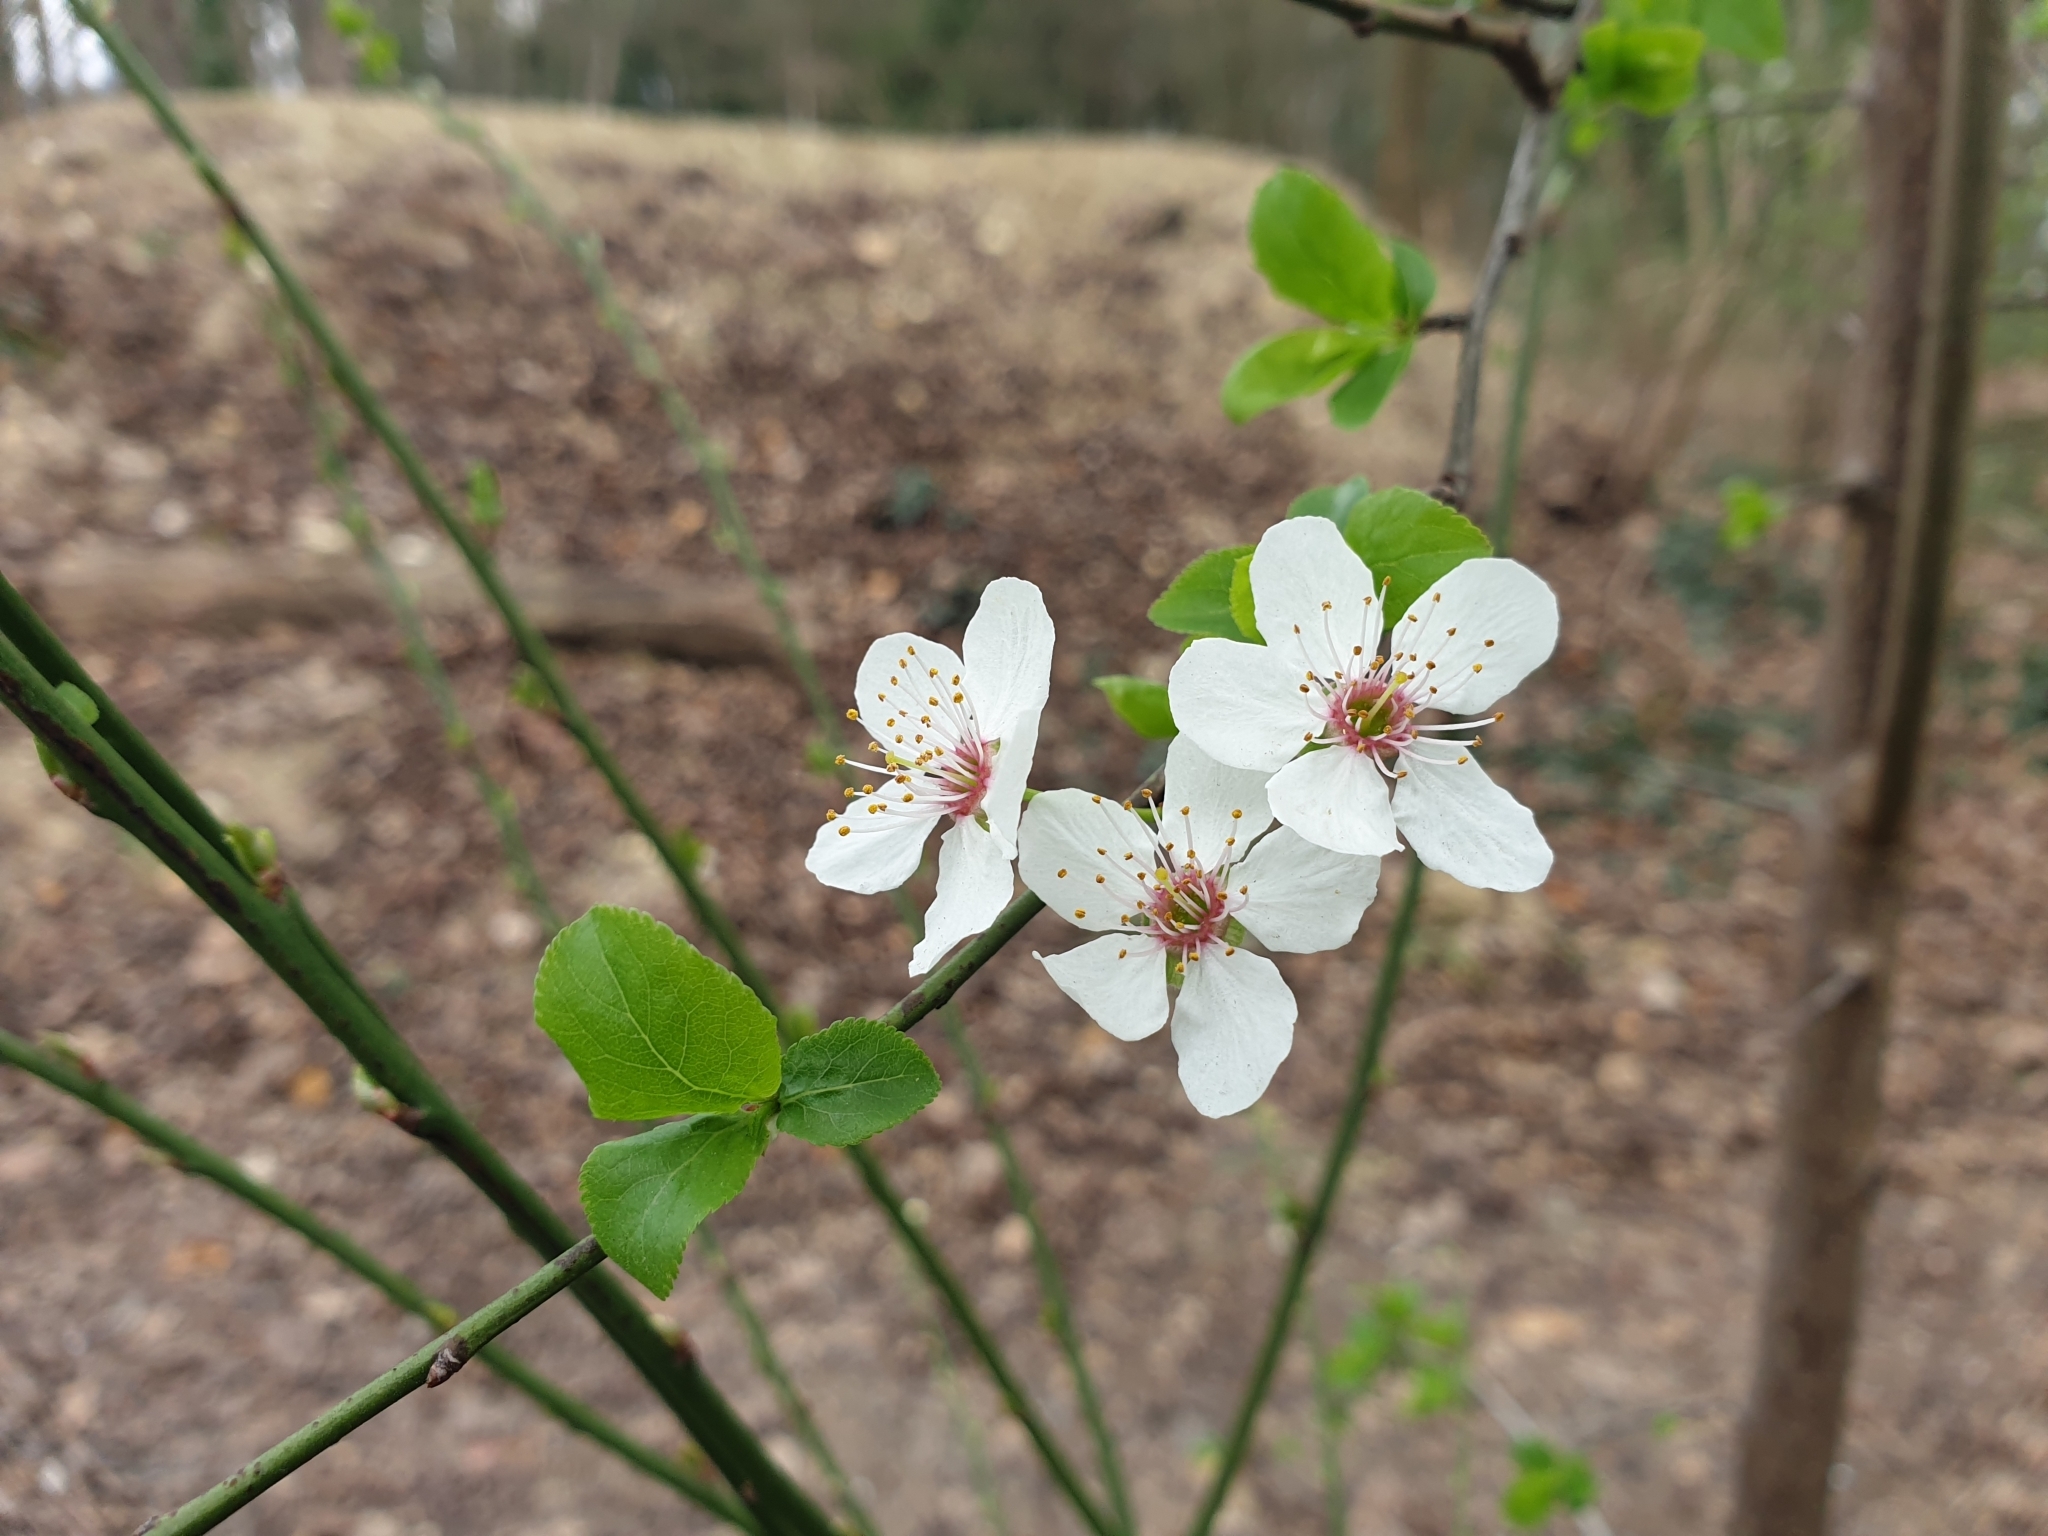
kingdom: Plantae
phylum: Tracheophyta
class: Magnoliopsida
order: Rosales
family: Rosaceae
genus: Prunus
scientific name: Prunus cerasifera
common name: Cherry plum
